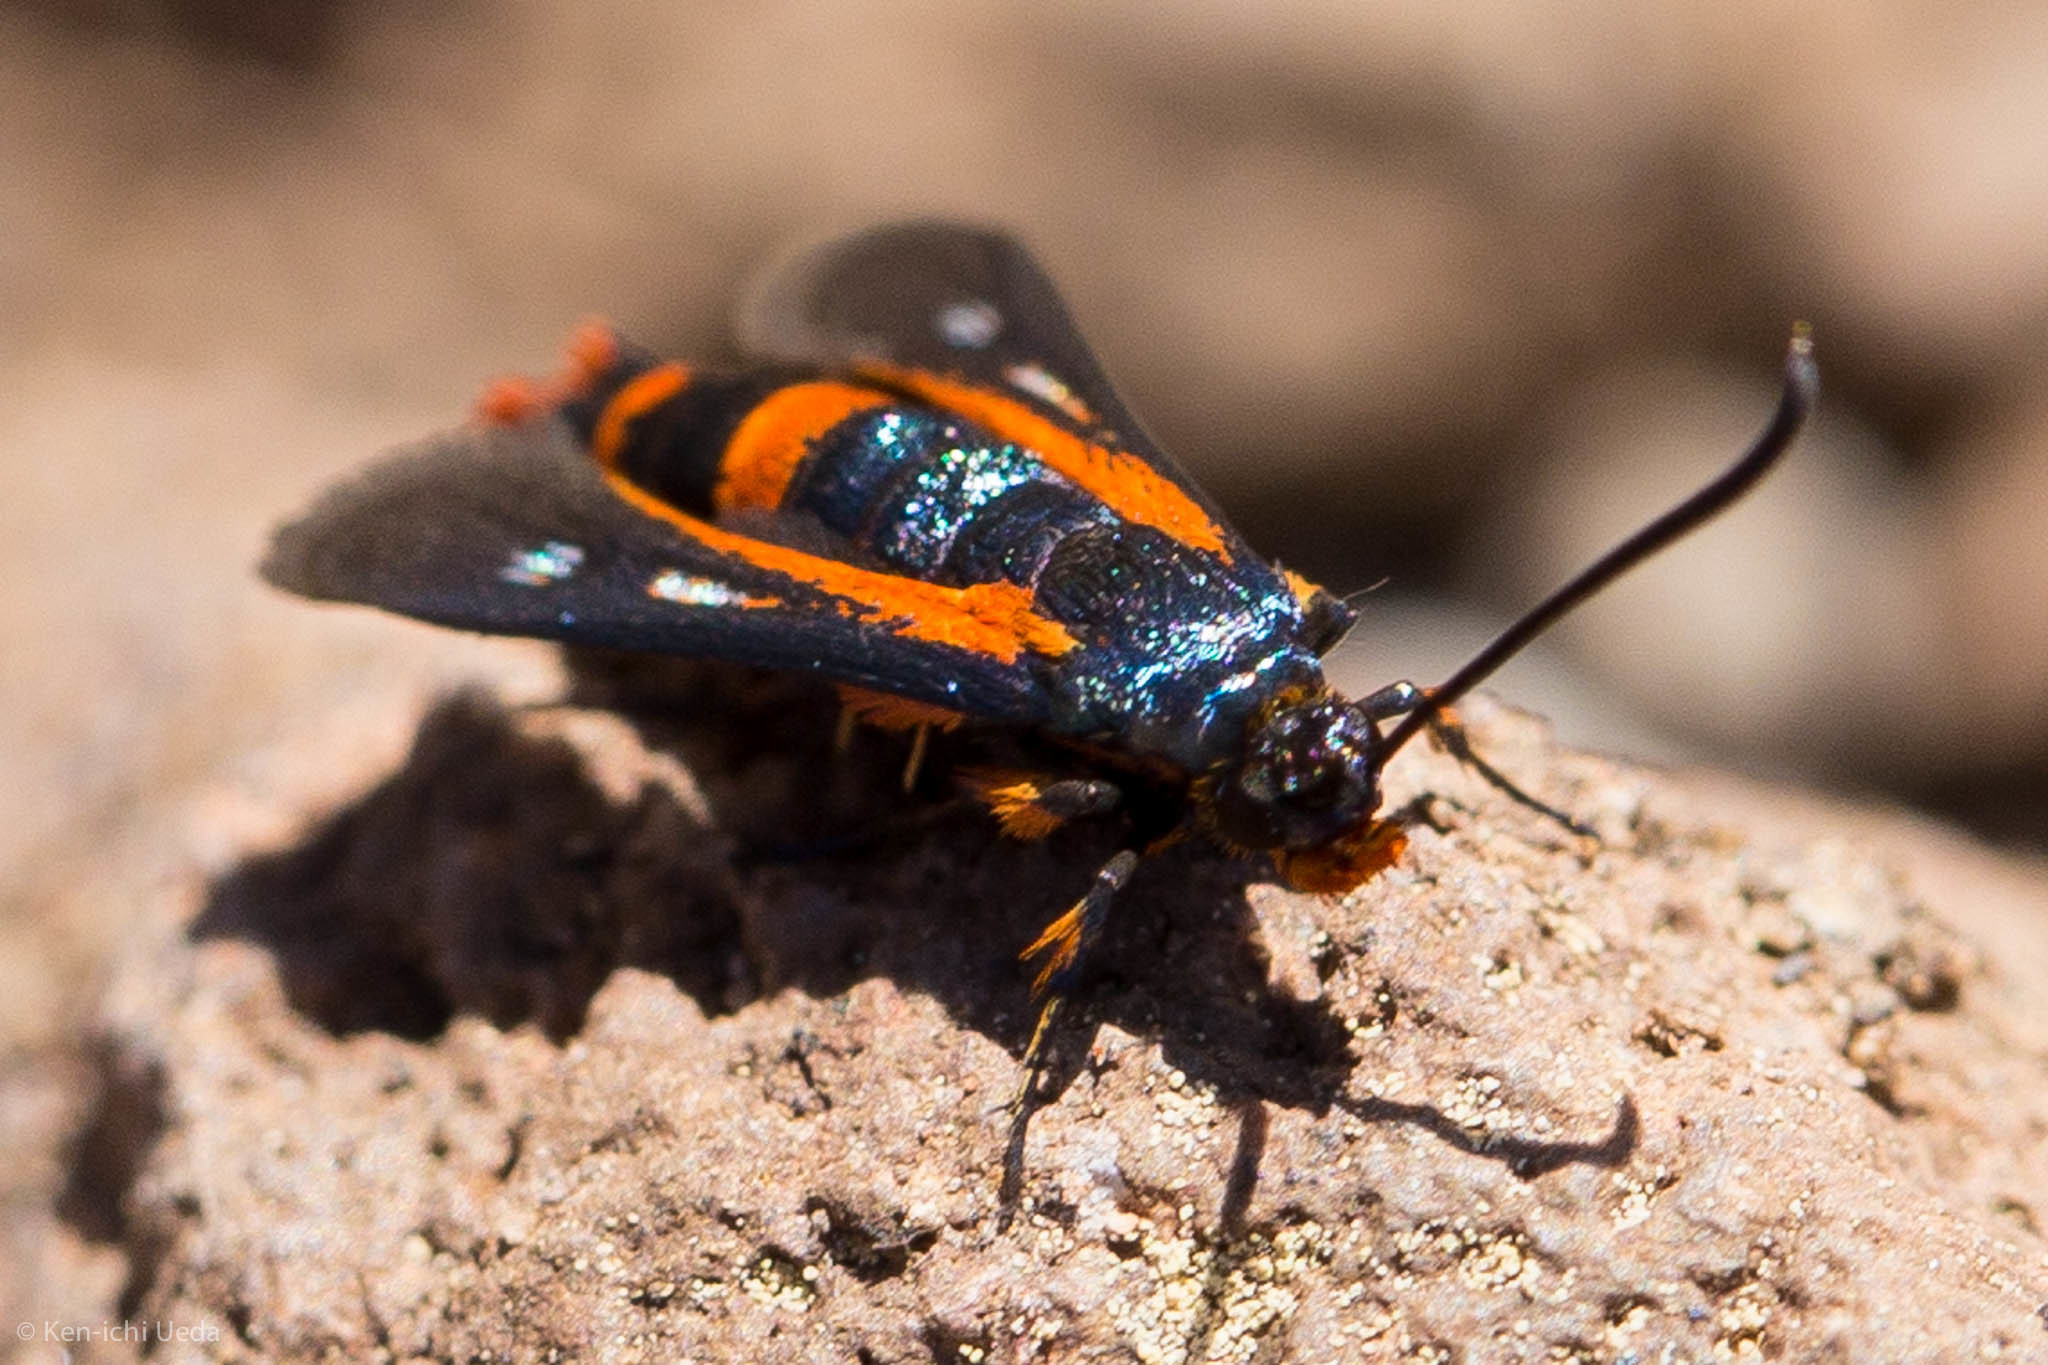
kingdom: Animalia
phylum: Arthropoda
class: Insecta
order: Lepidoptera
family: Sesiidae
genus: Synanthedon
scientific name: Synanthedon polygoni
